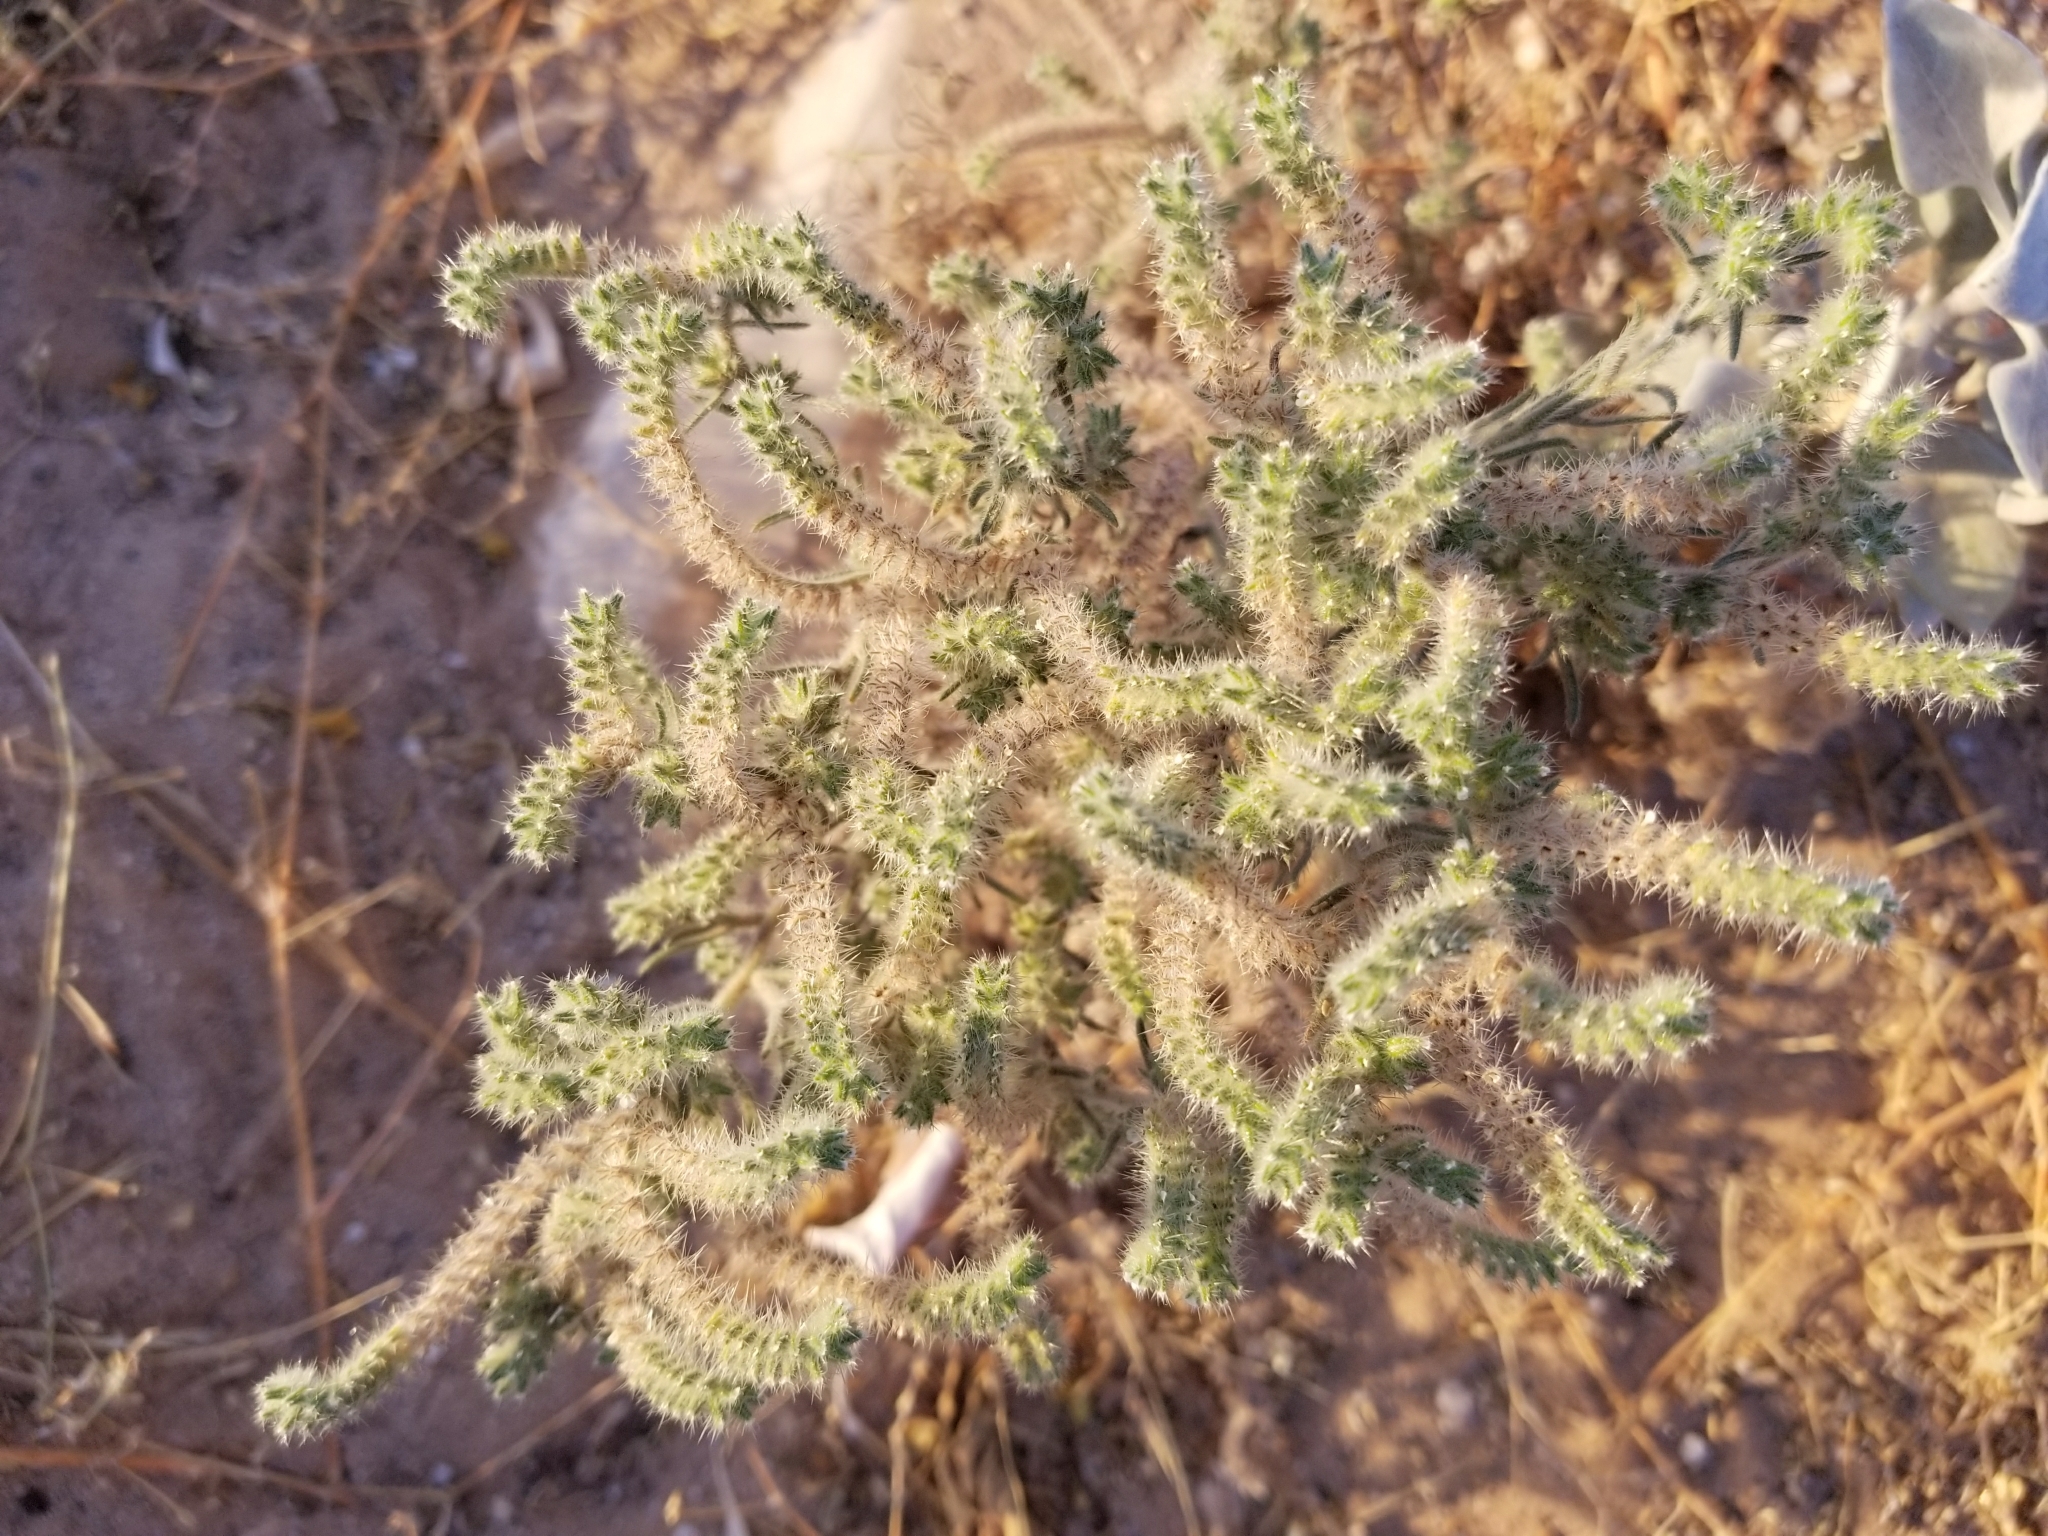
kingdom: Plantae
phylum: Tracheophyta
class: Magnoliopsida
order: Boraginales
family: Boraginaceae
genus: Johnstonella
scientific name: Johnstonella angustifolia
